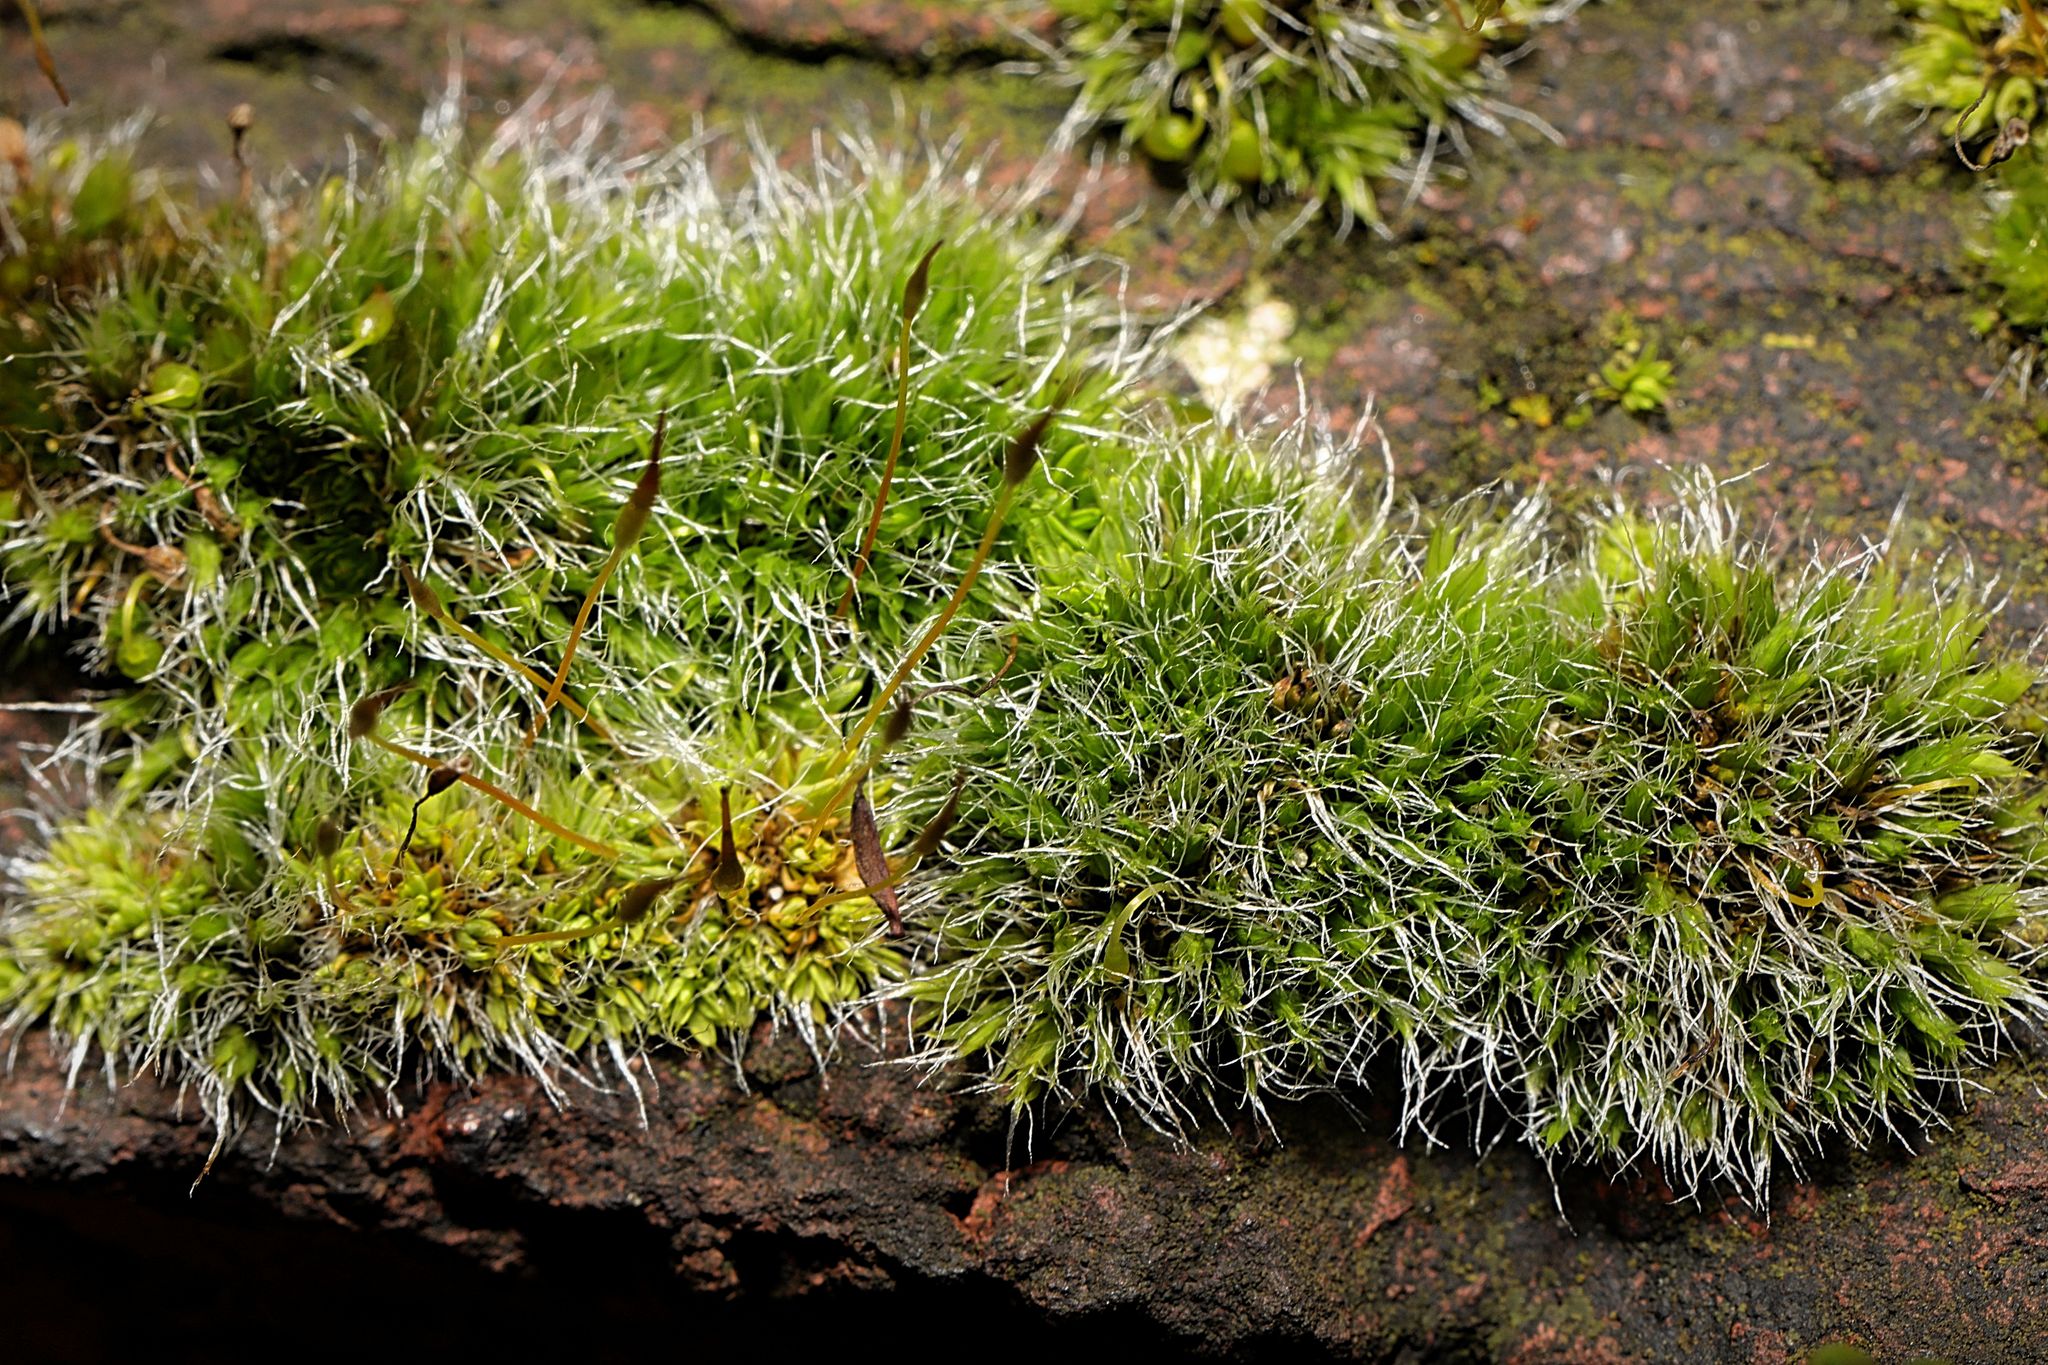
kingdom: Plantae
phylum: Bryophyta
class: Bryopsida
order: Grimmiales
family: Grimmiaceae
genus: Grimmia
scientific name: Grimmia pulvinata
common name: Grey-cushioned grimmia
